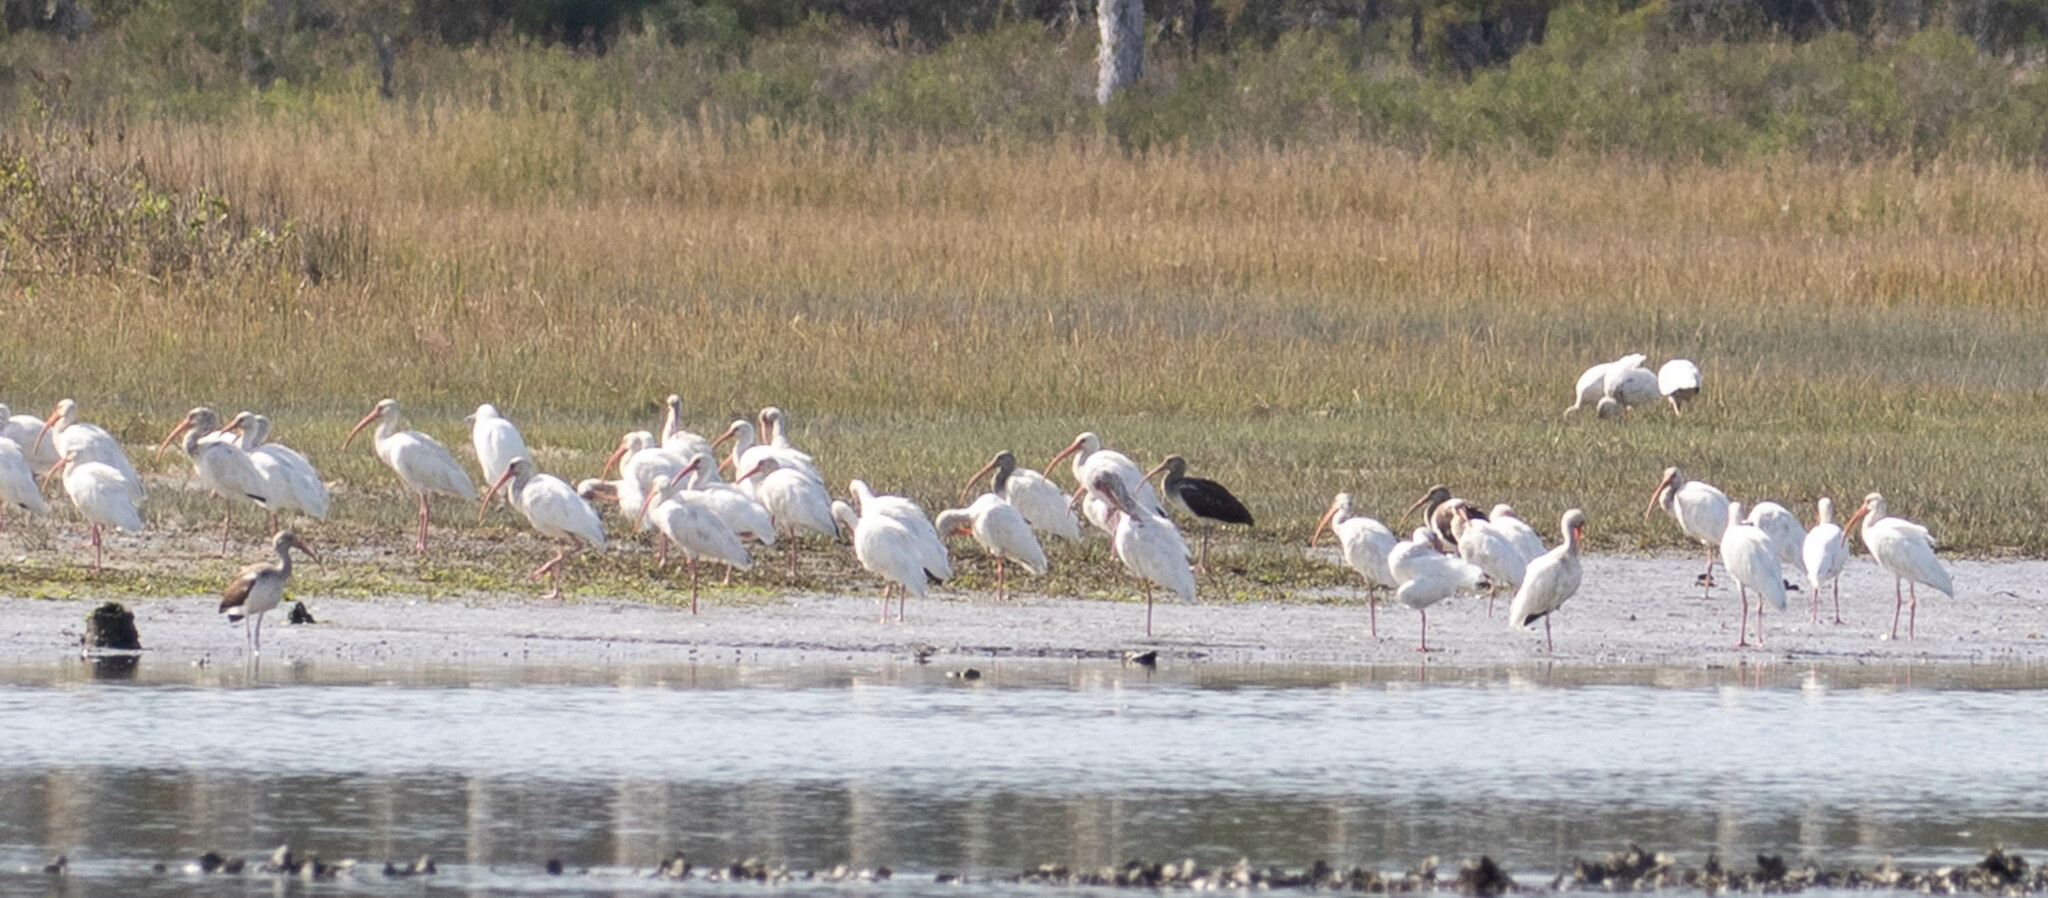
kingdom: Animalia
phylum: Chordata
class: Aves
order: Pelecaniformes
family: Threskiornithidae
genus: Eudocimus
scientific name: Eudocimus albus
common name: White ibis
